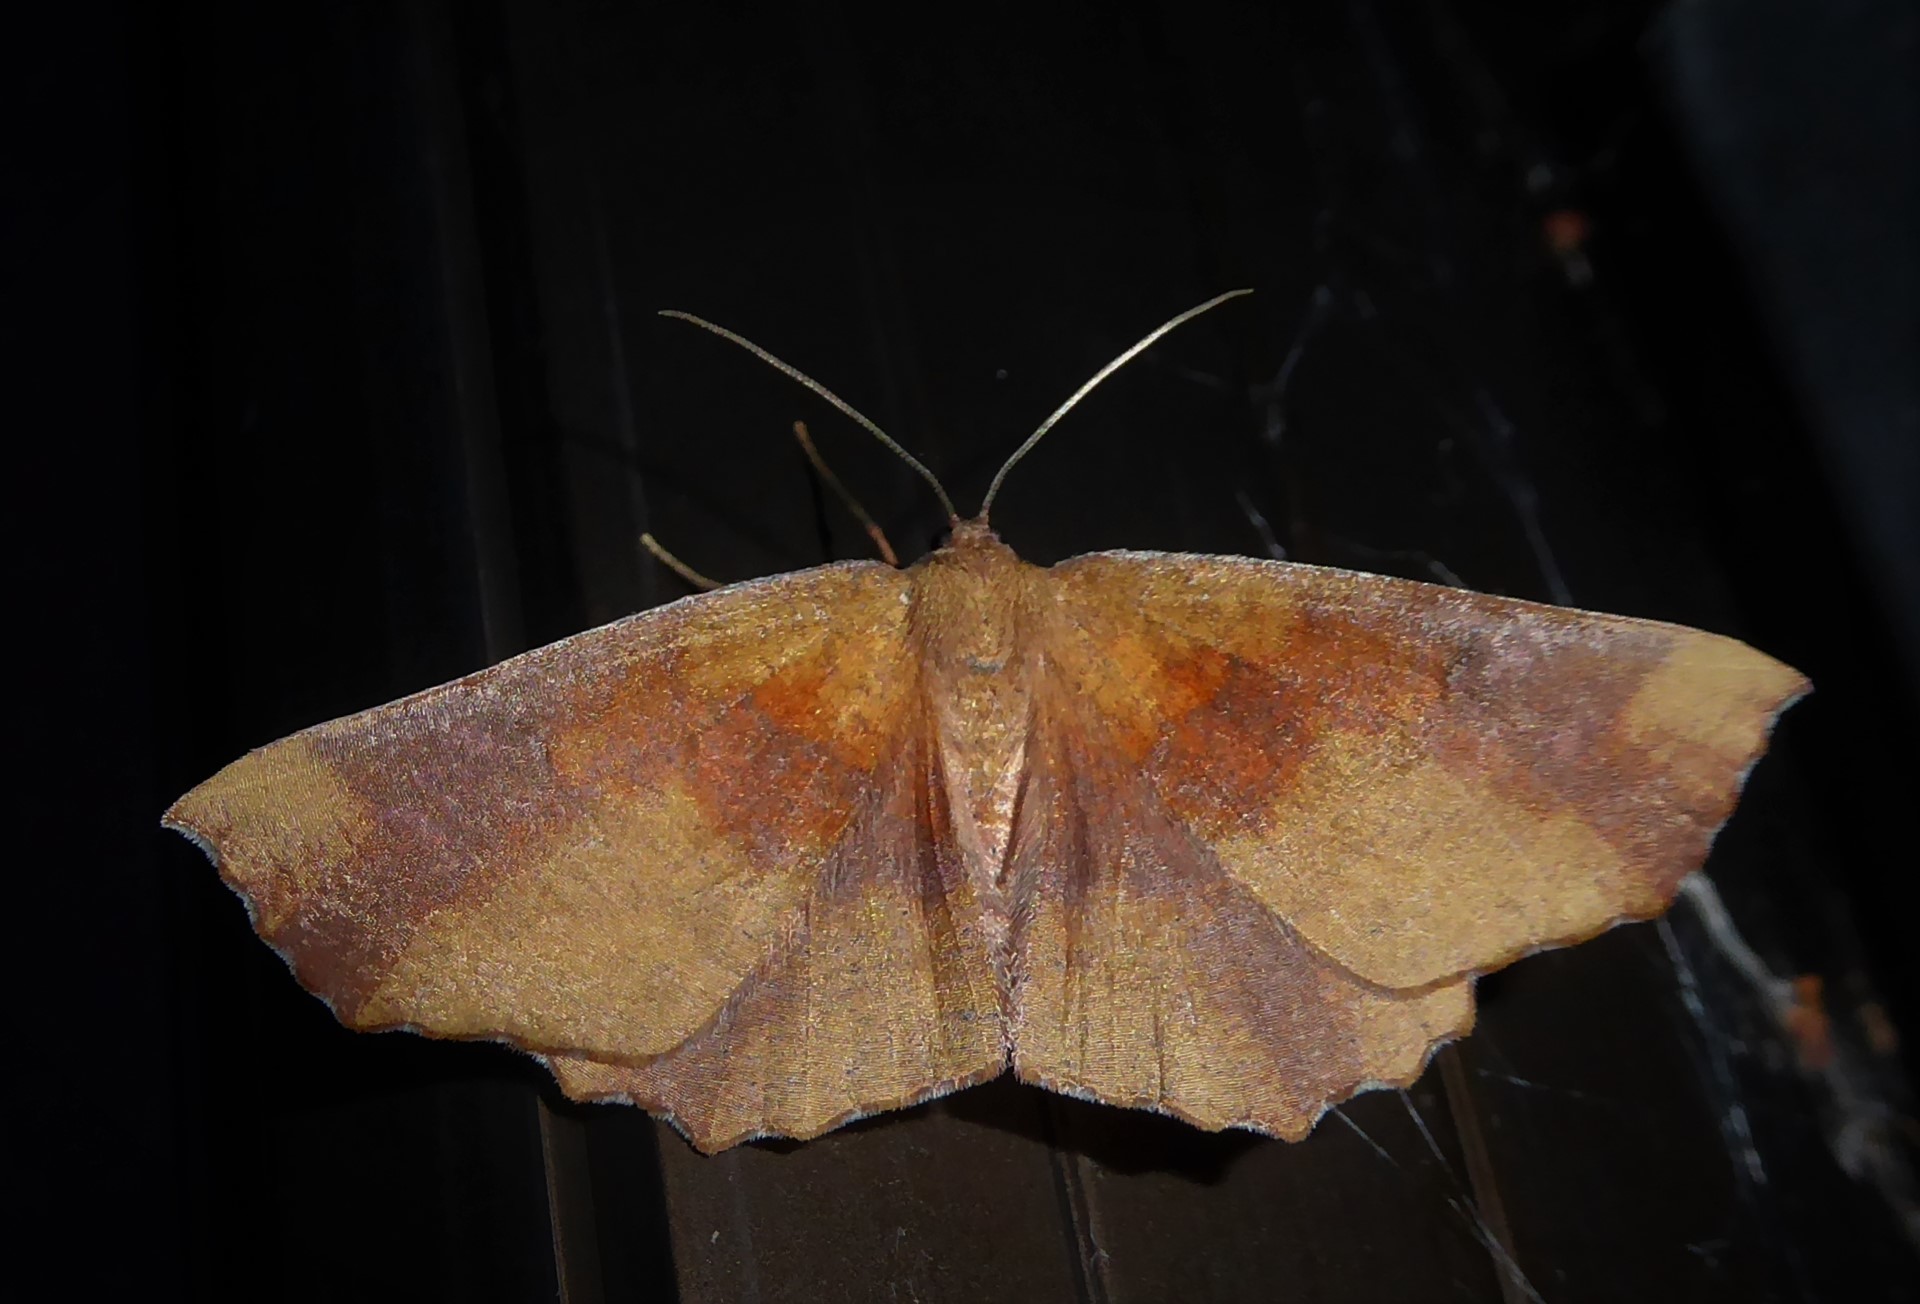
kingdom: Animalia
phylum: Arthropoda
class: Insecta
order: Lepidoptera
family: Geometridae
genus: Xyridacma
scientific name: Xyridacma ustaria
